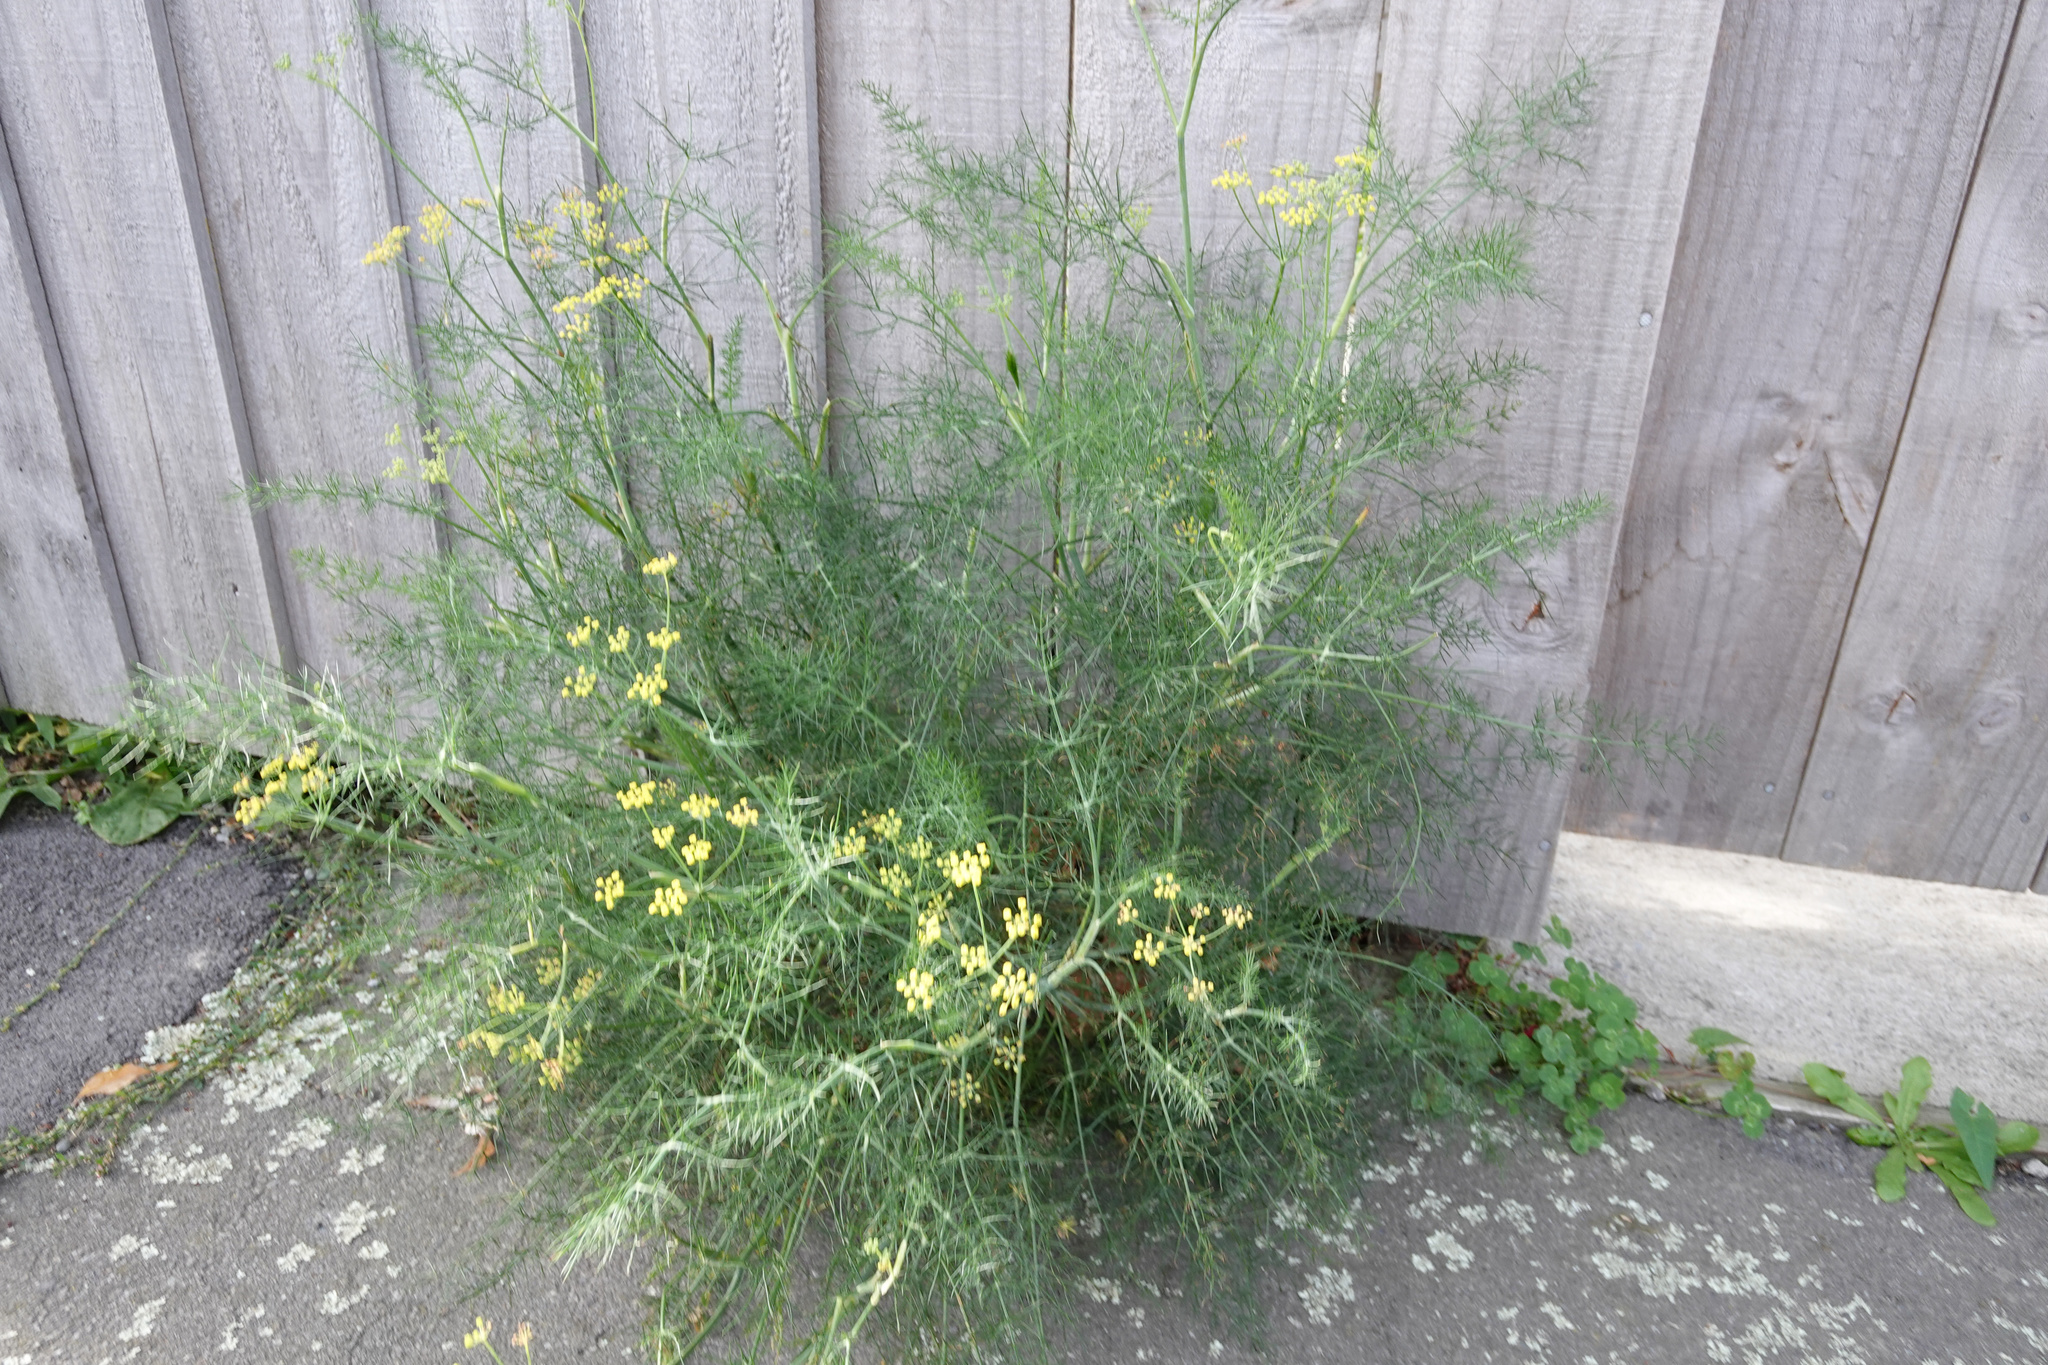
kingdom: Plantae
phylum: Tracheophyta
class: Magnoliopsida
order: Apiales
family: Apiaceae
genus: Foeniculum
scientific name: Foeniculum vulgare
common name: Fennel
